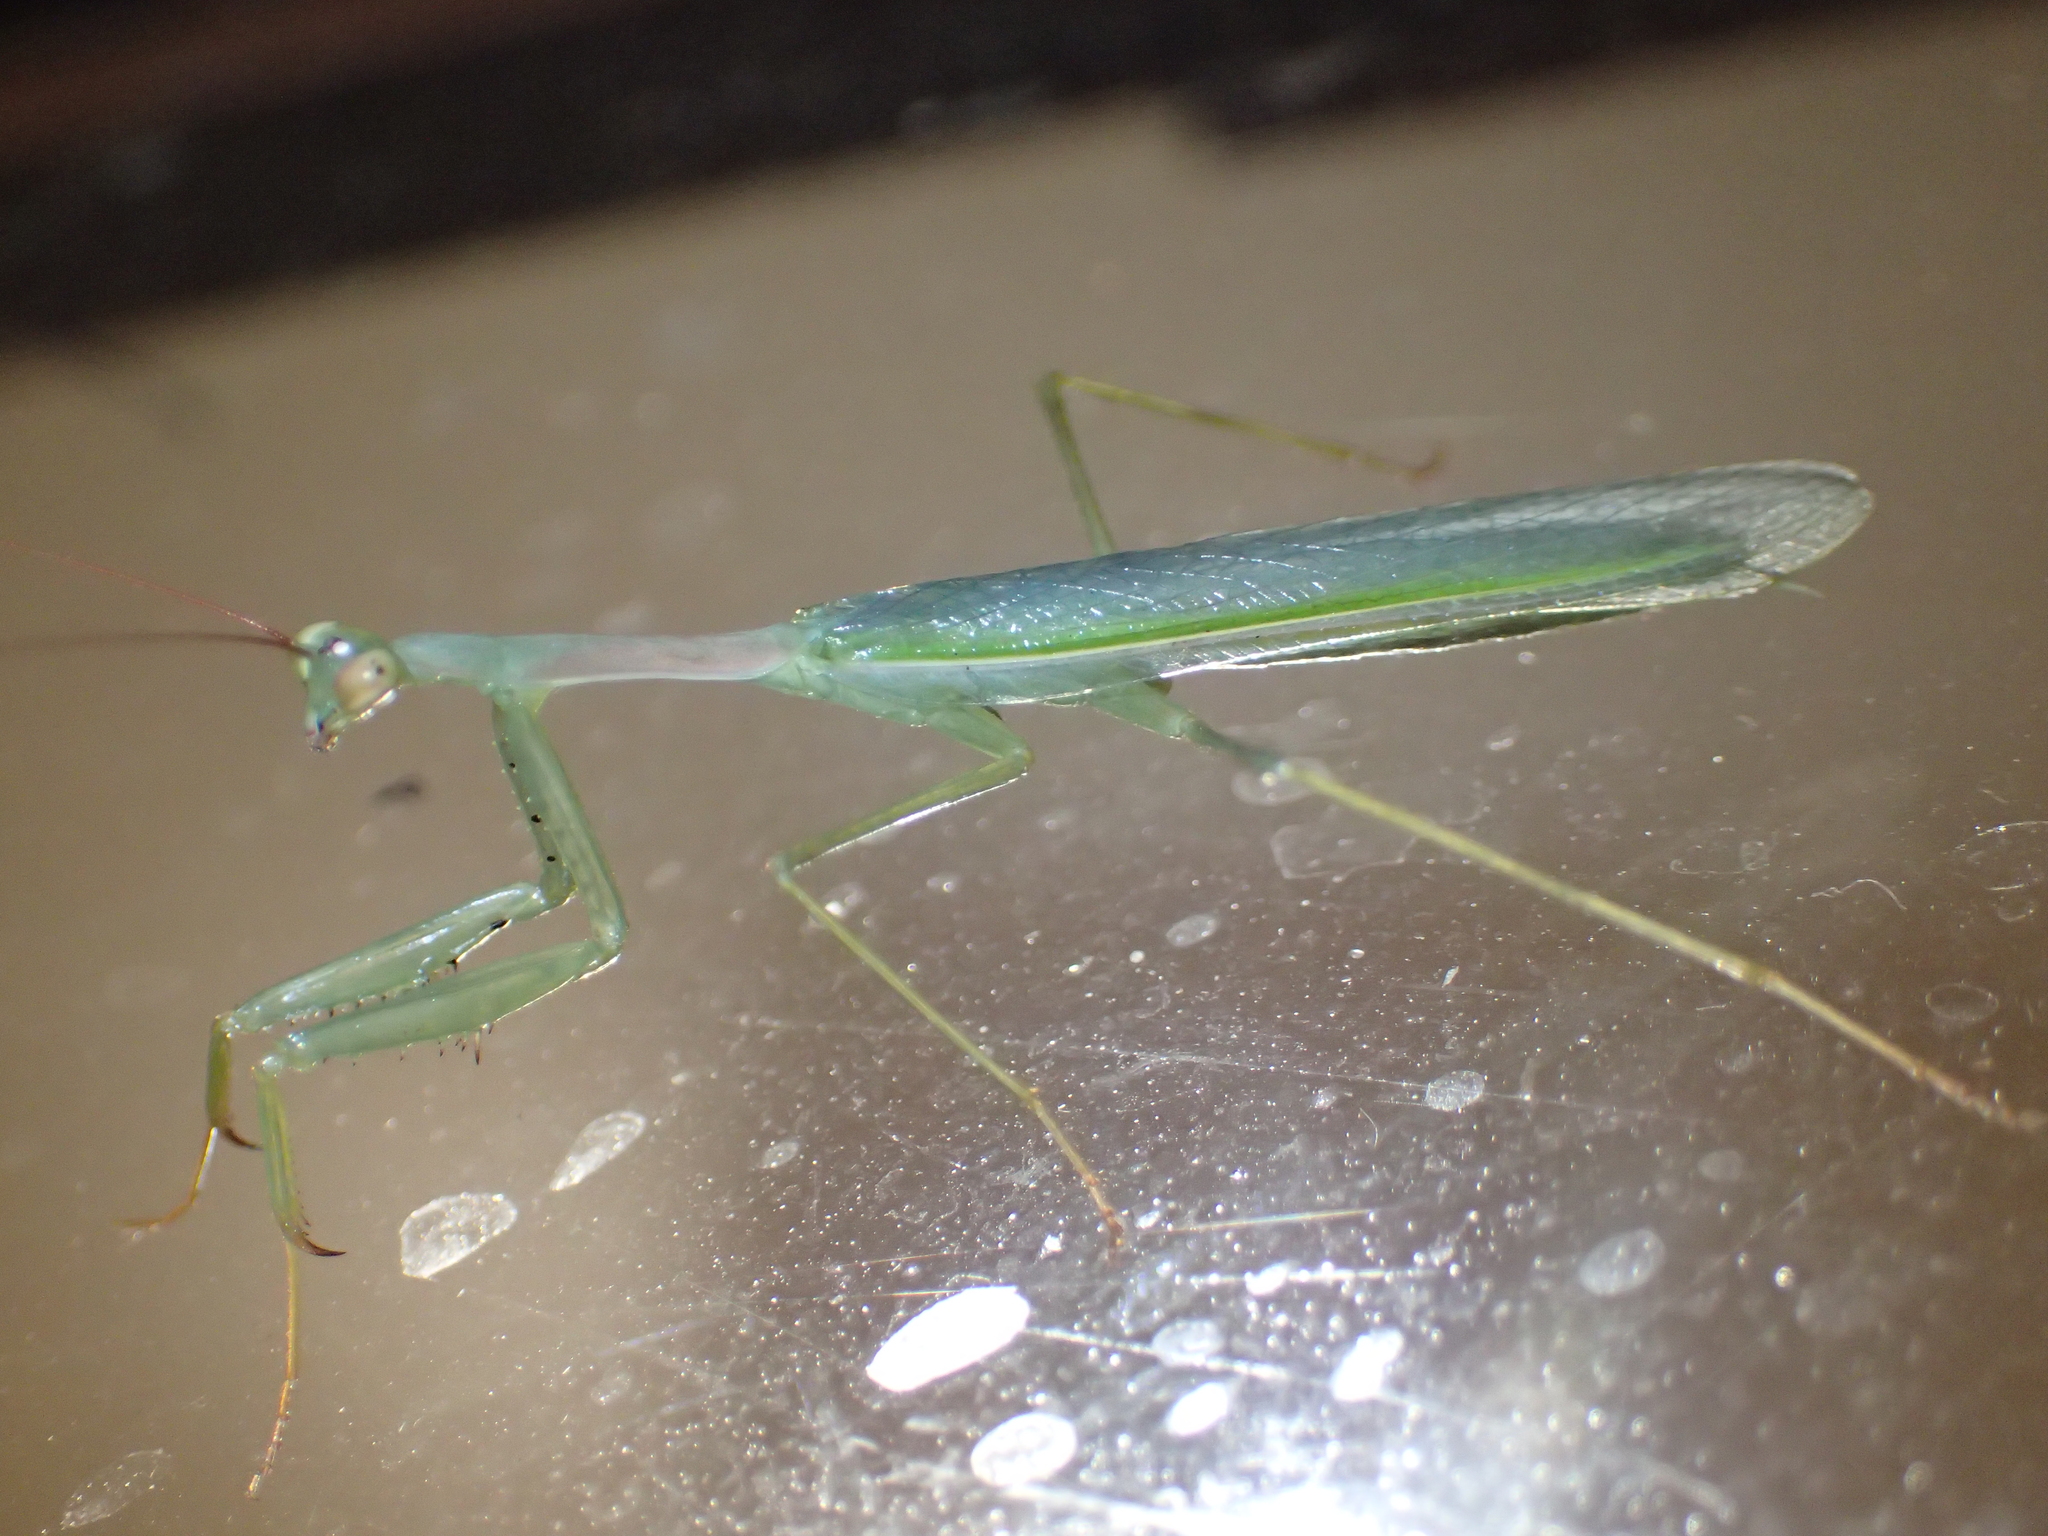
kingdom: Animalia
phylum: Arthropoda
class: Insecta
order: Mantodea
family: Miomantidae
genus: Miomantis
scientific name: Miomantis caffra
